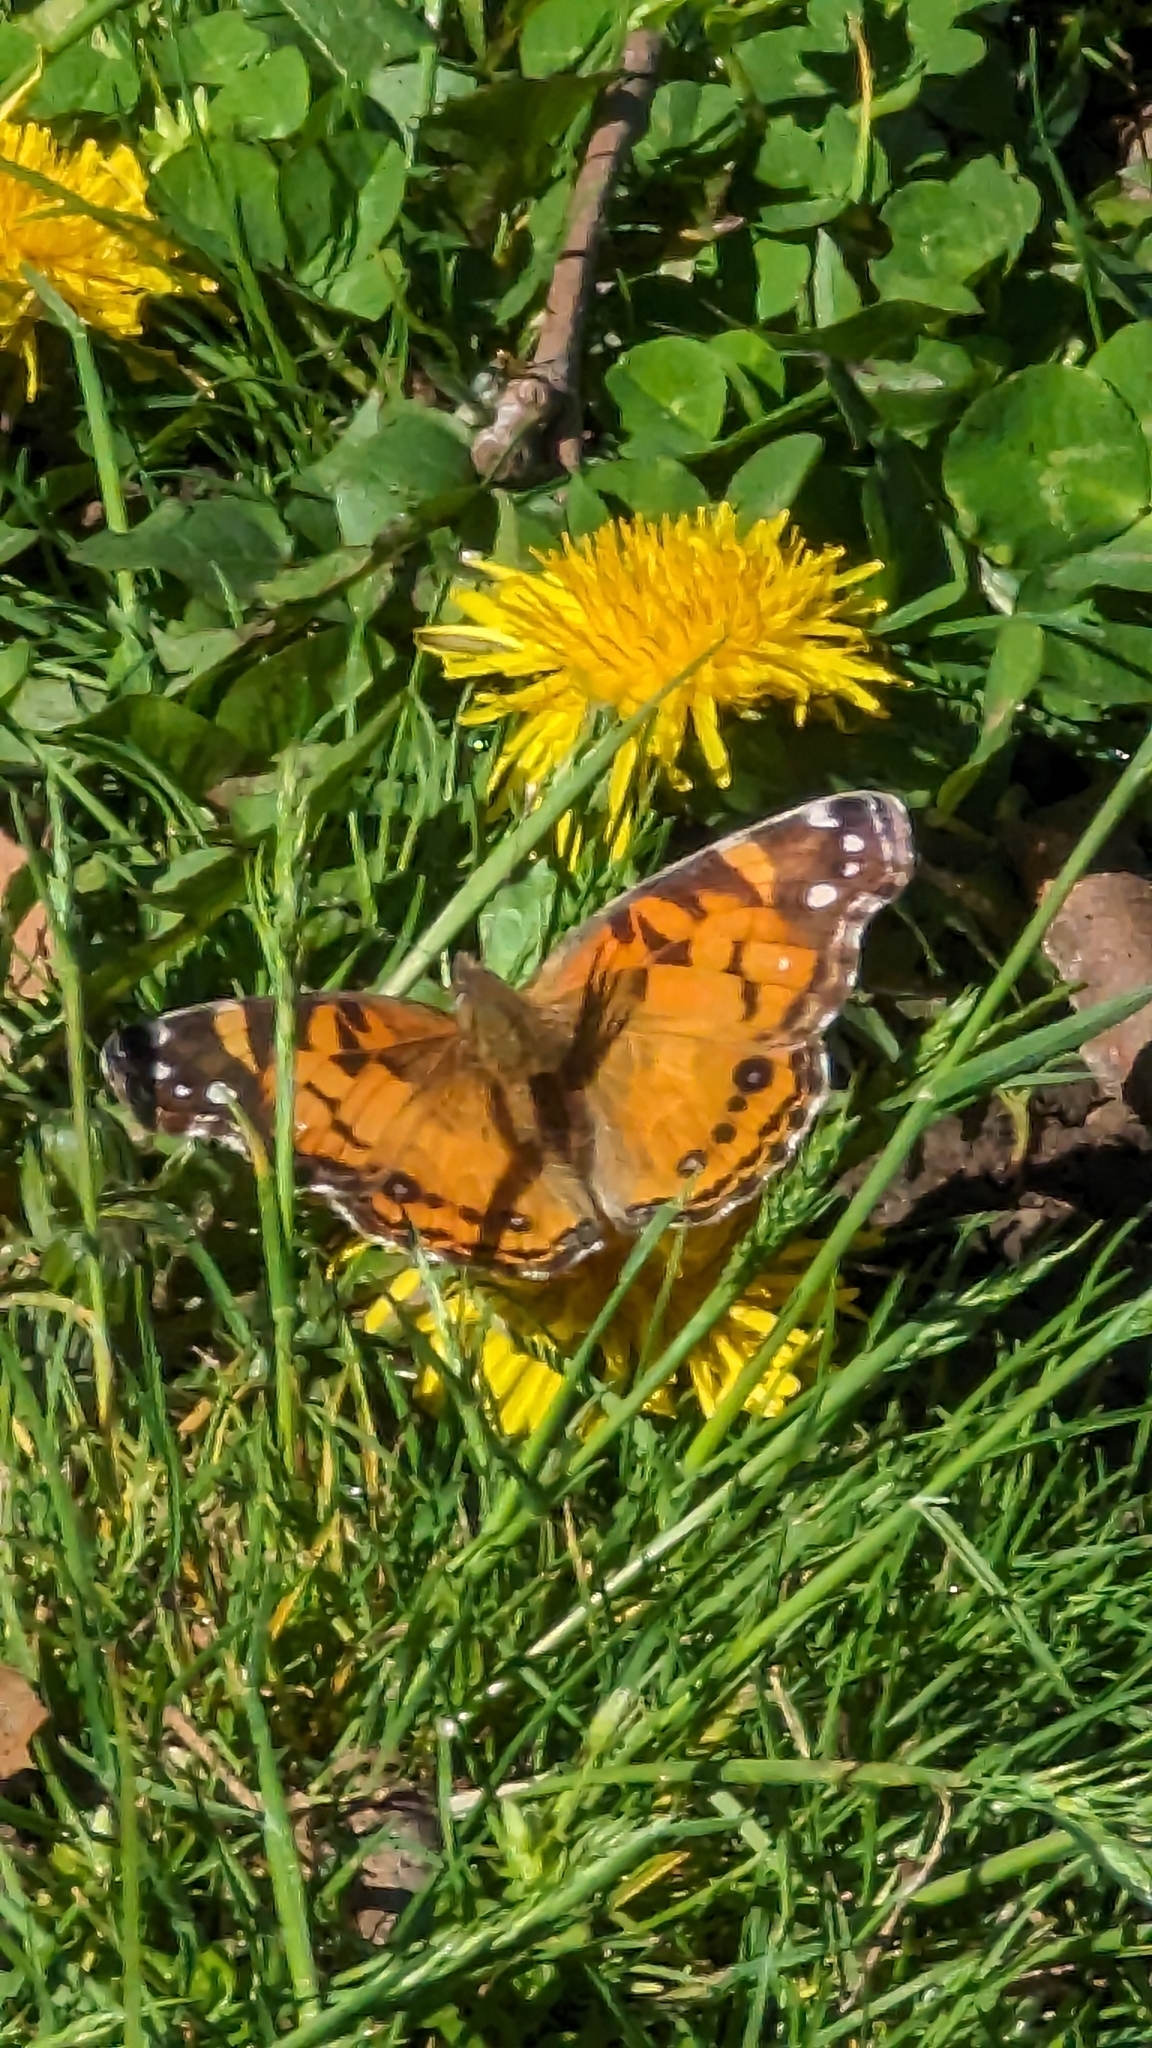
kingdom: Animalia
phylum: Arthropoda
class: Insecta
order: Lepidoptera
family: Nymphalidae
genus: Vanessa
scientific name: Vanessa virginiensis
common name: American lady
